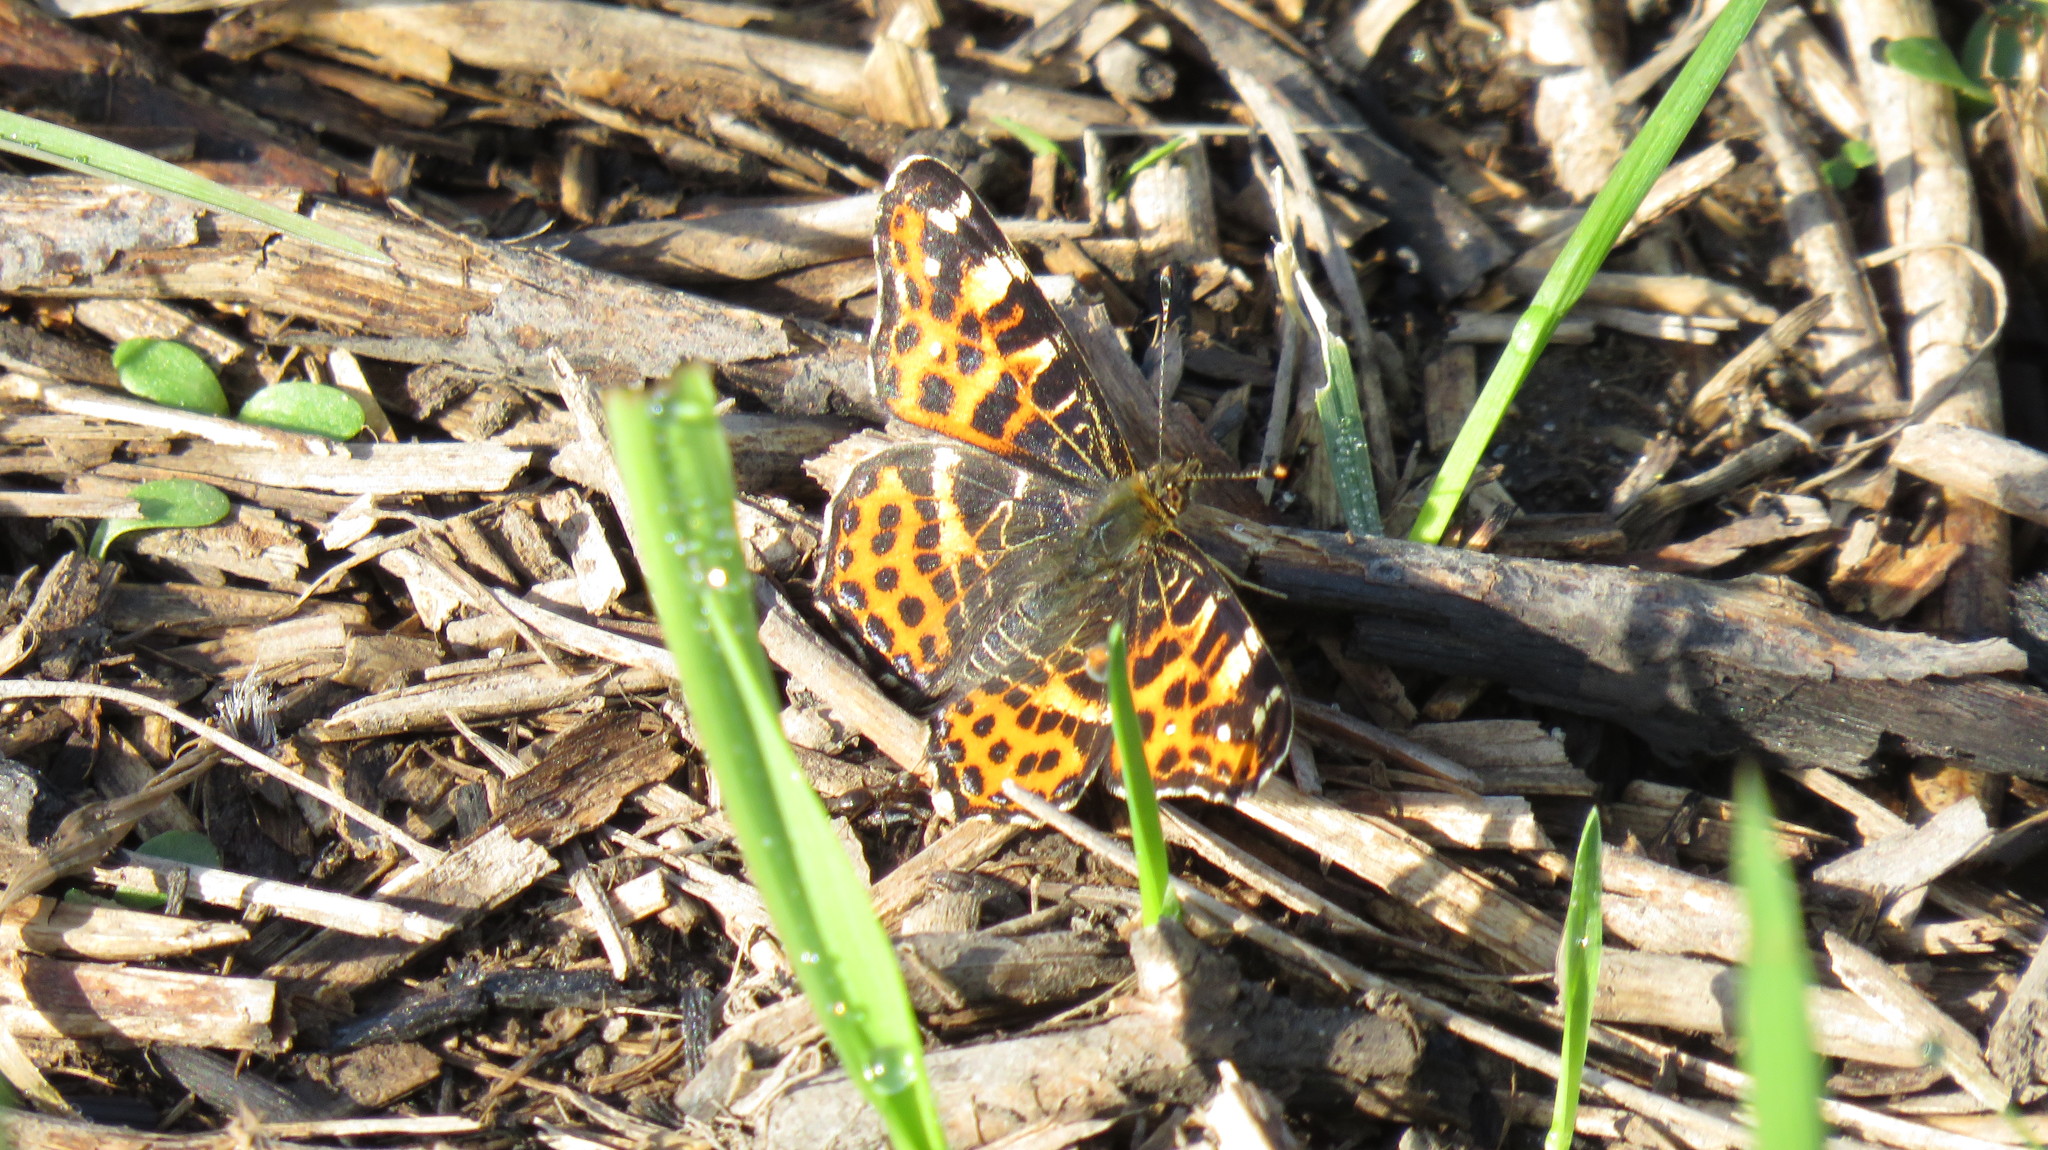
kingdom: Animalia
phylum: Arthropoda
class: Insecta
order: Lepidoptera
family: Nymphalidae
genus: Araschnia
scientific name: Araschnia levana
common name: Map butterfly
